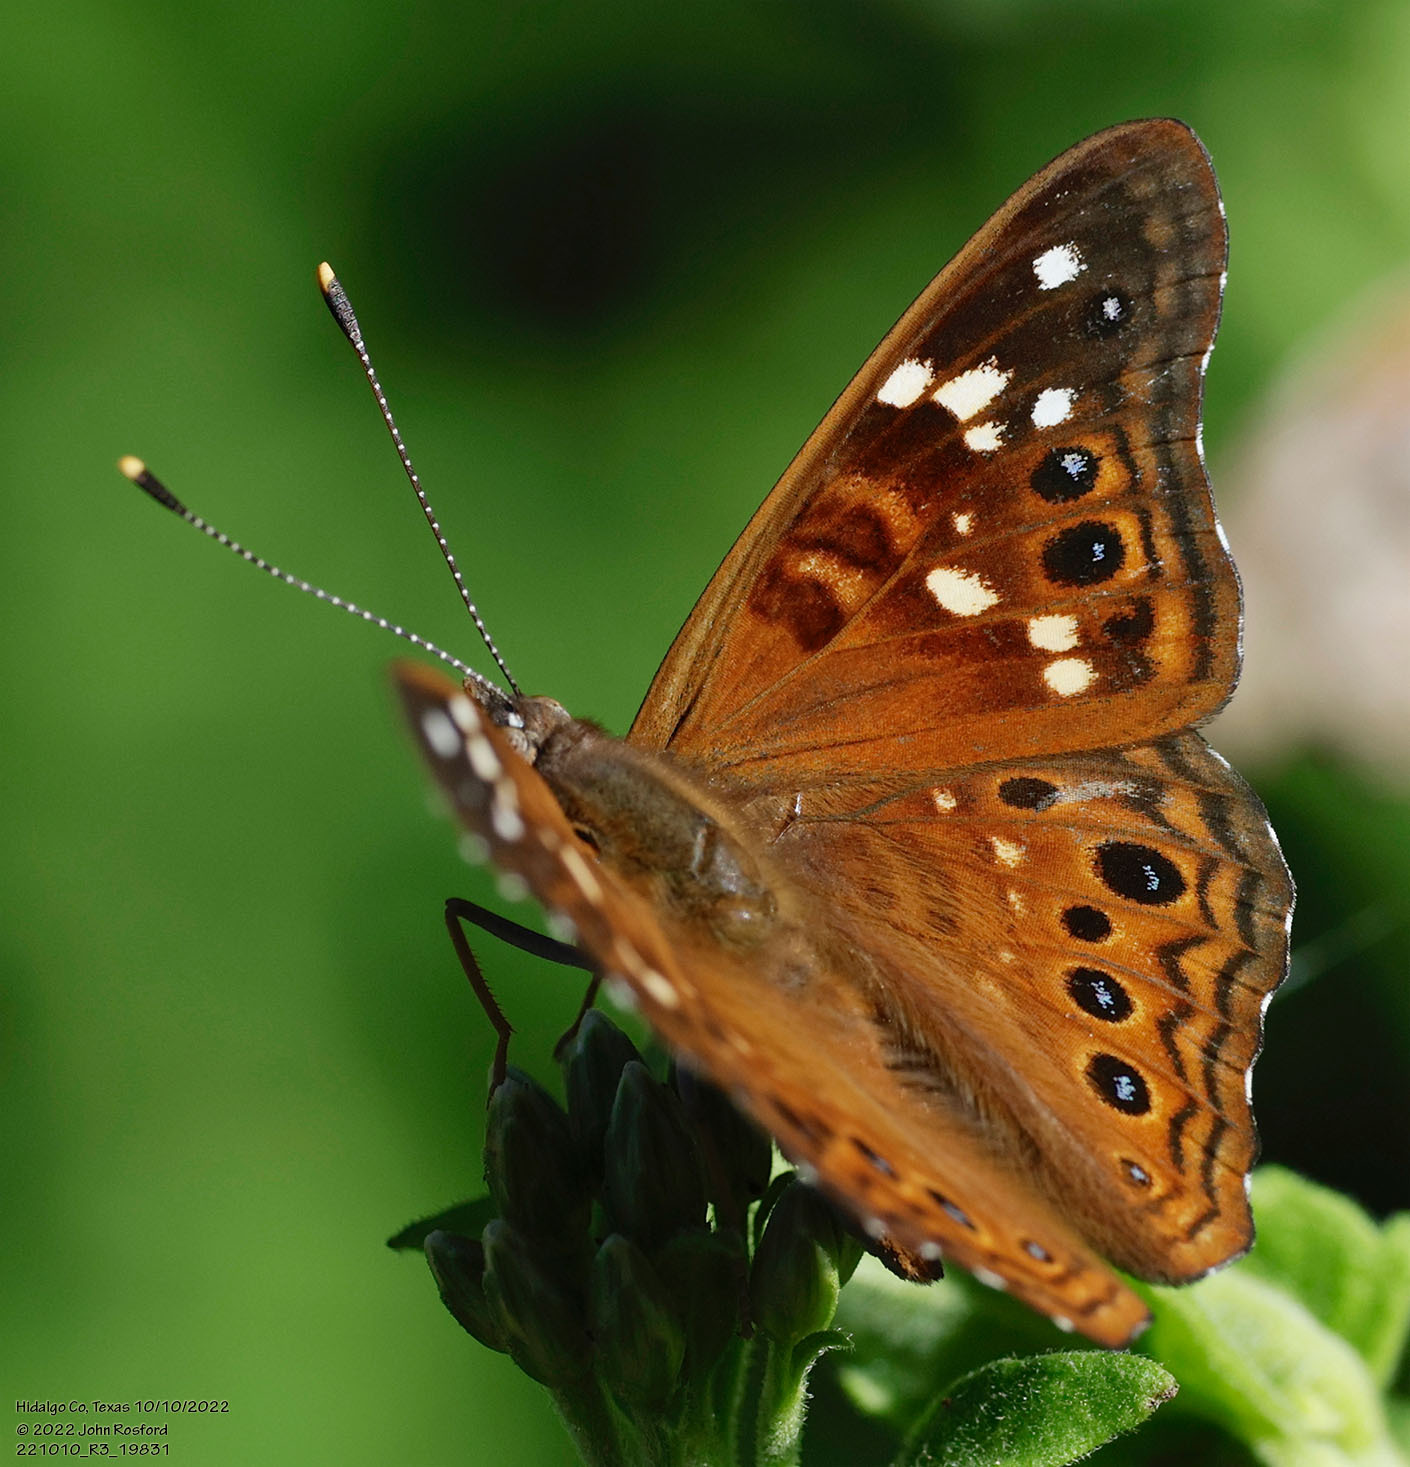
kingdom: Animalia
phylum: Arthropoda
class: Insecta
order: Lepidoptera
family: Nymphalidae
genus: Asterocampa
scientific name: Asterocampa leilia
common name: Empress leilia
